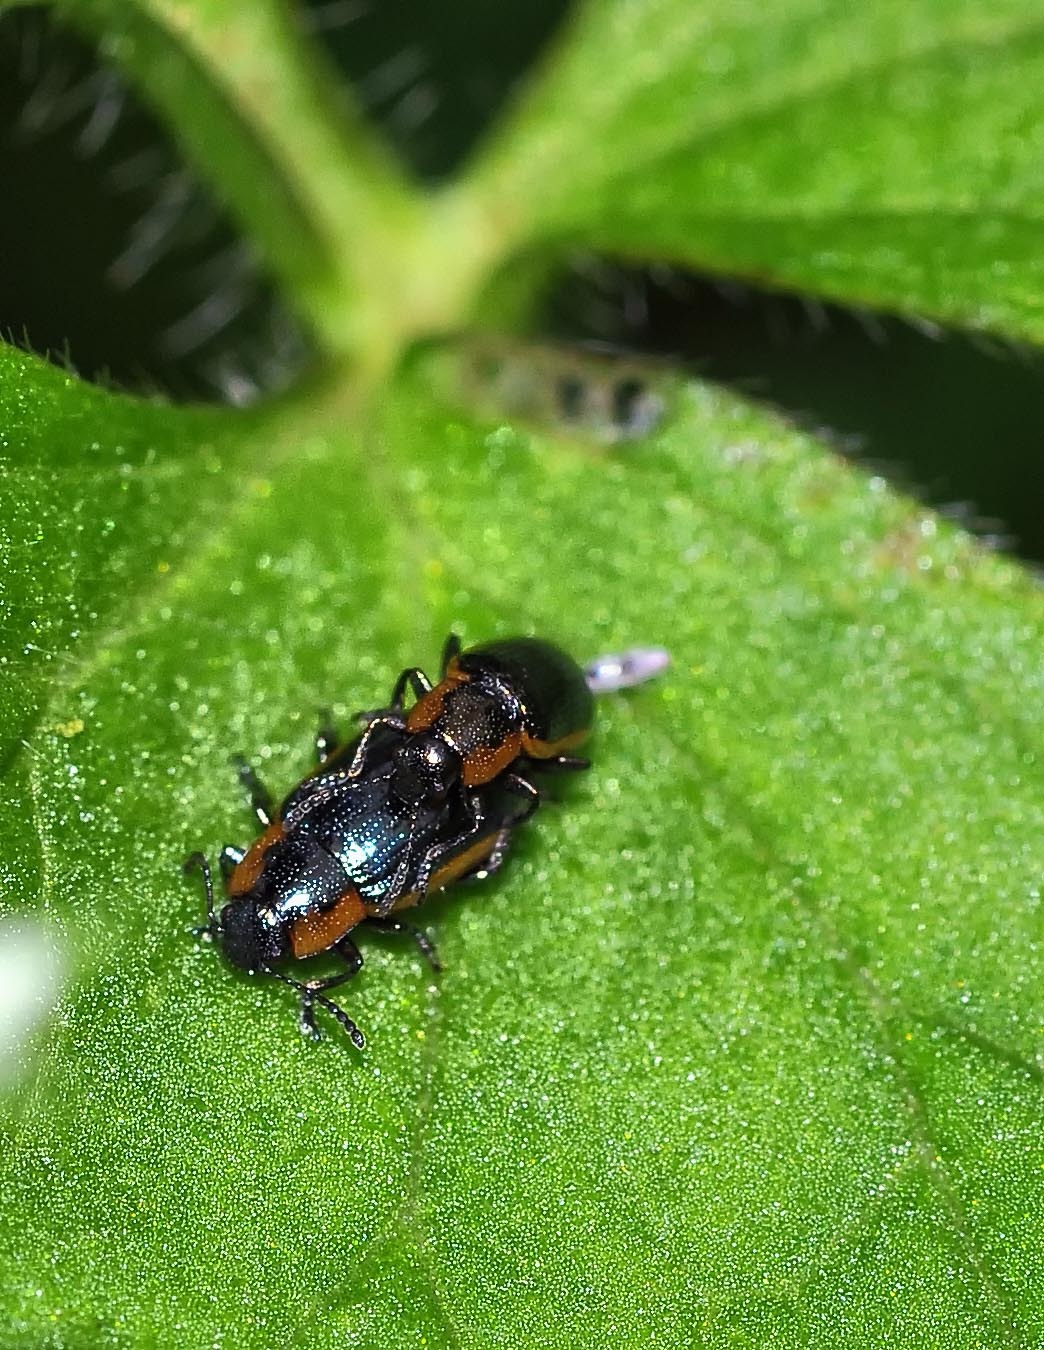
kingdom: Animalia
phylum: Arthropoda
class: Insecta
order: Coleoptera
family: Chrysomelidae
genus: Prasocuris
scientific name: Prasocuris marginella
